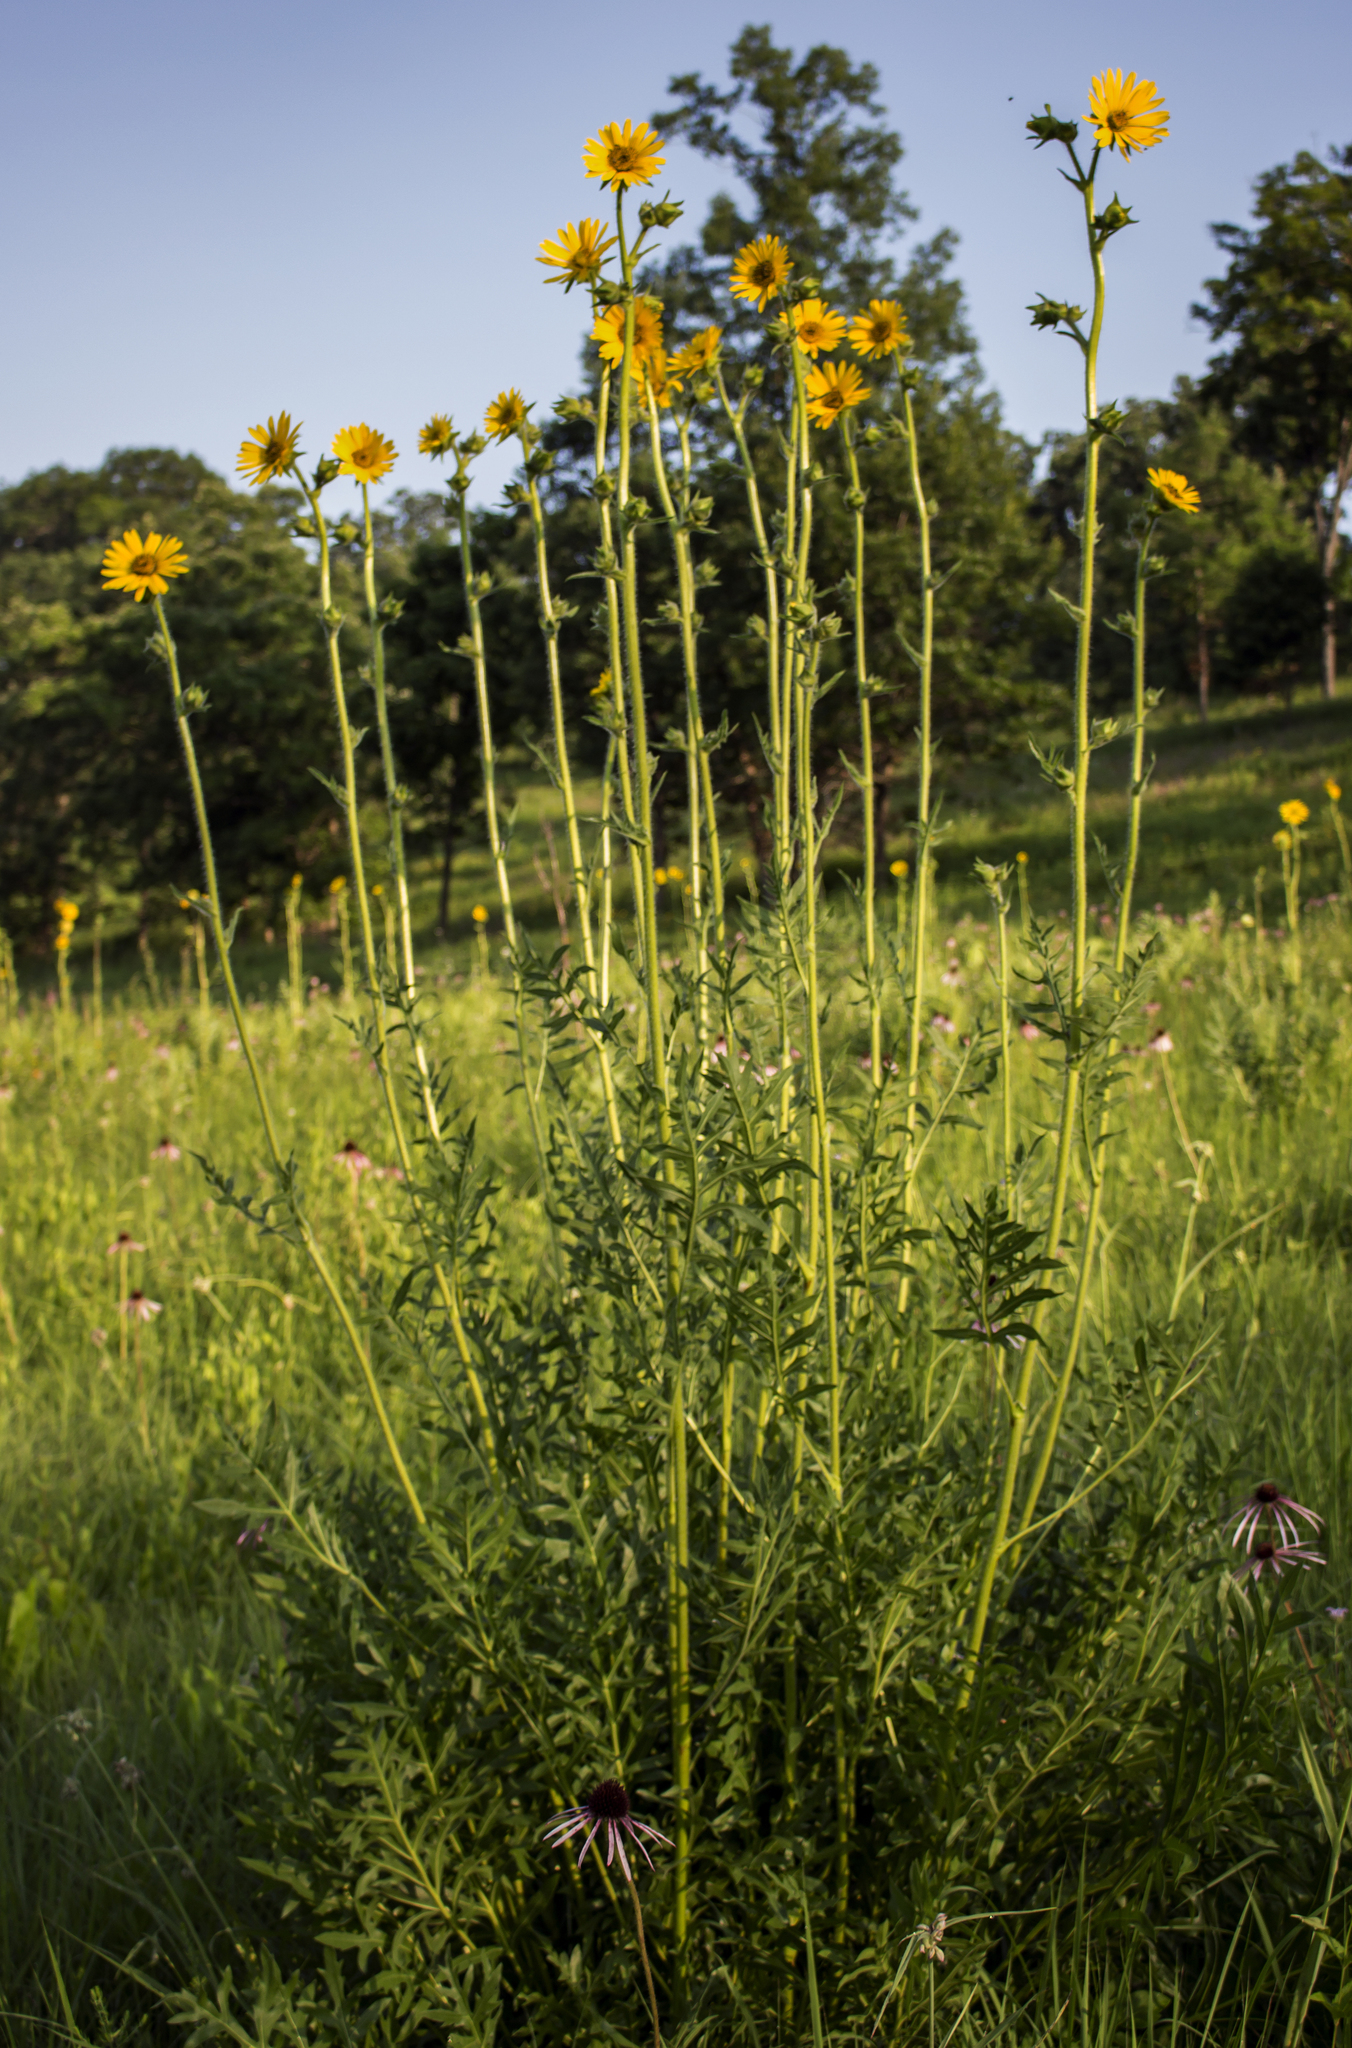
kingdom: Plantae
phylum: Tracheophyta
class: Magnoliopsida
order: Asterales
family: Asteraceae
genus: Silphium
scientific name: Silphium laciniatum
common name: Polarplant
